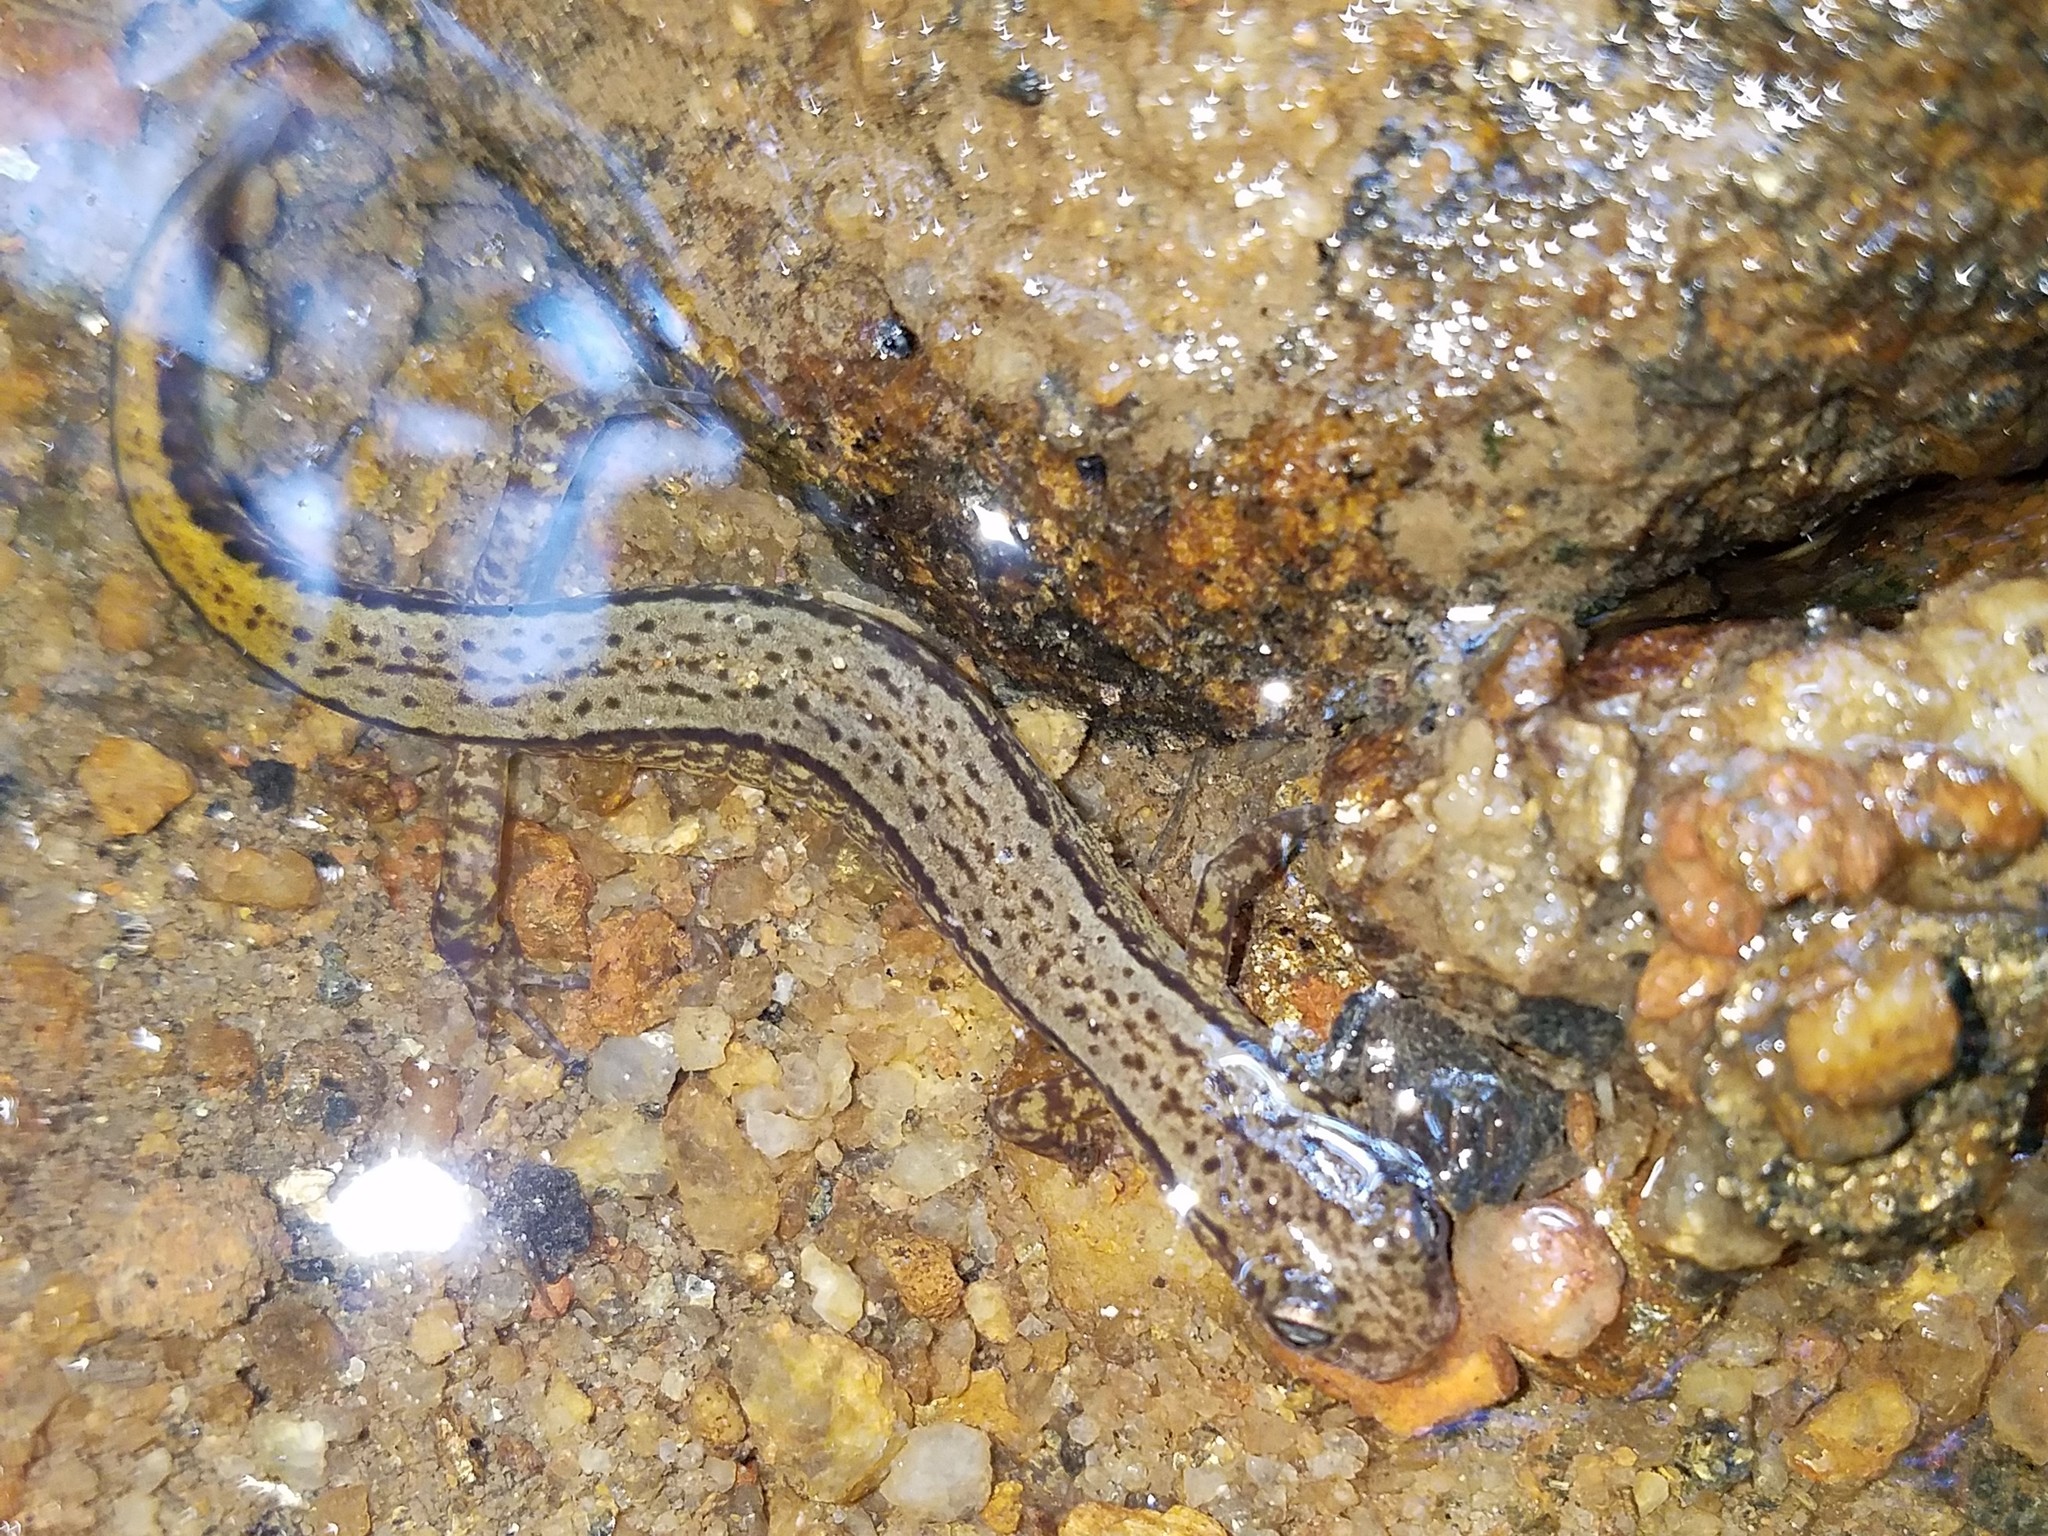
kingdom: Animalia
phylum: Chordata
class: Amphibia
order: Caudata
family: Plethodontidae
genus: Eurycea
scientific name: Eurycea cirrigera
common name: Southern two-lined salamander
